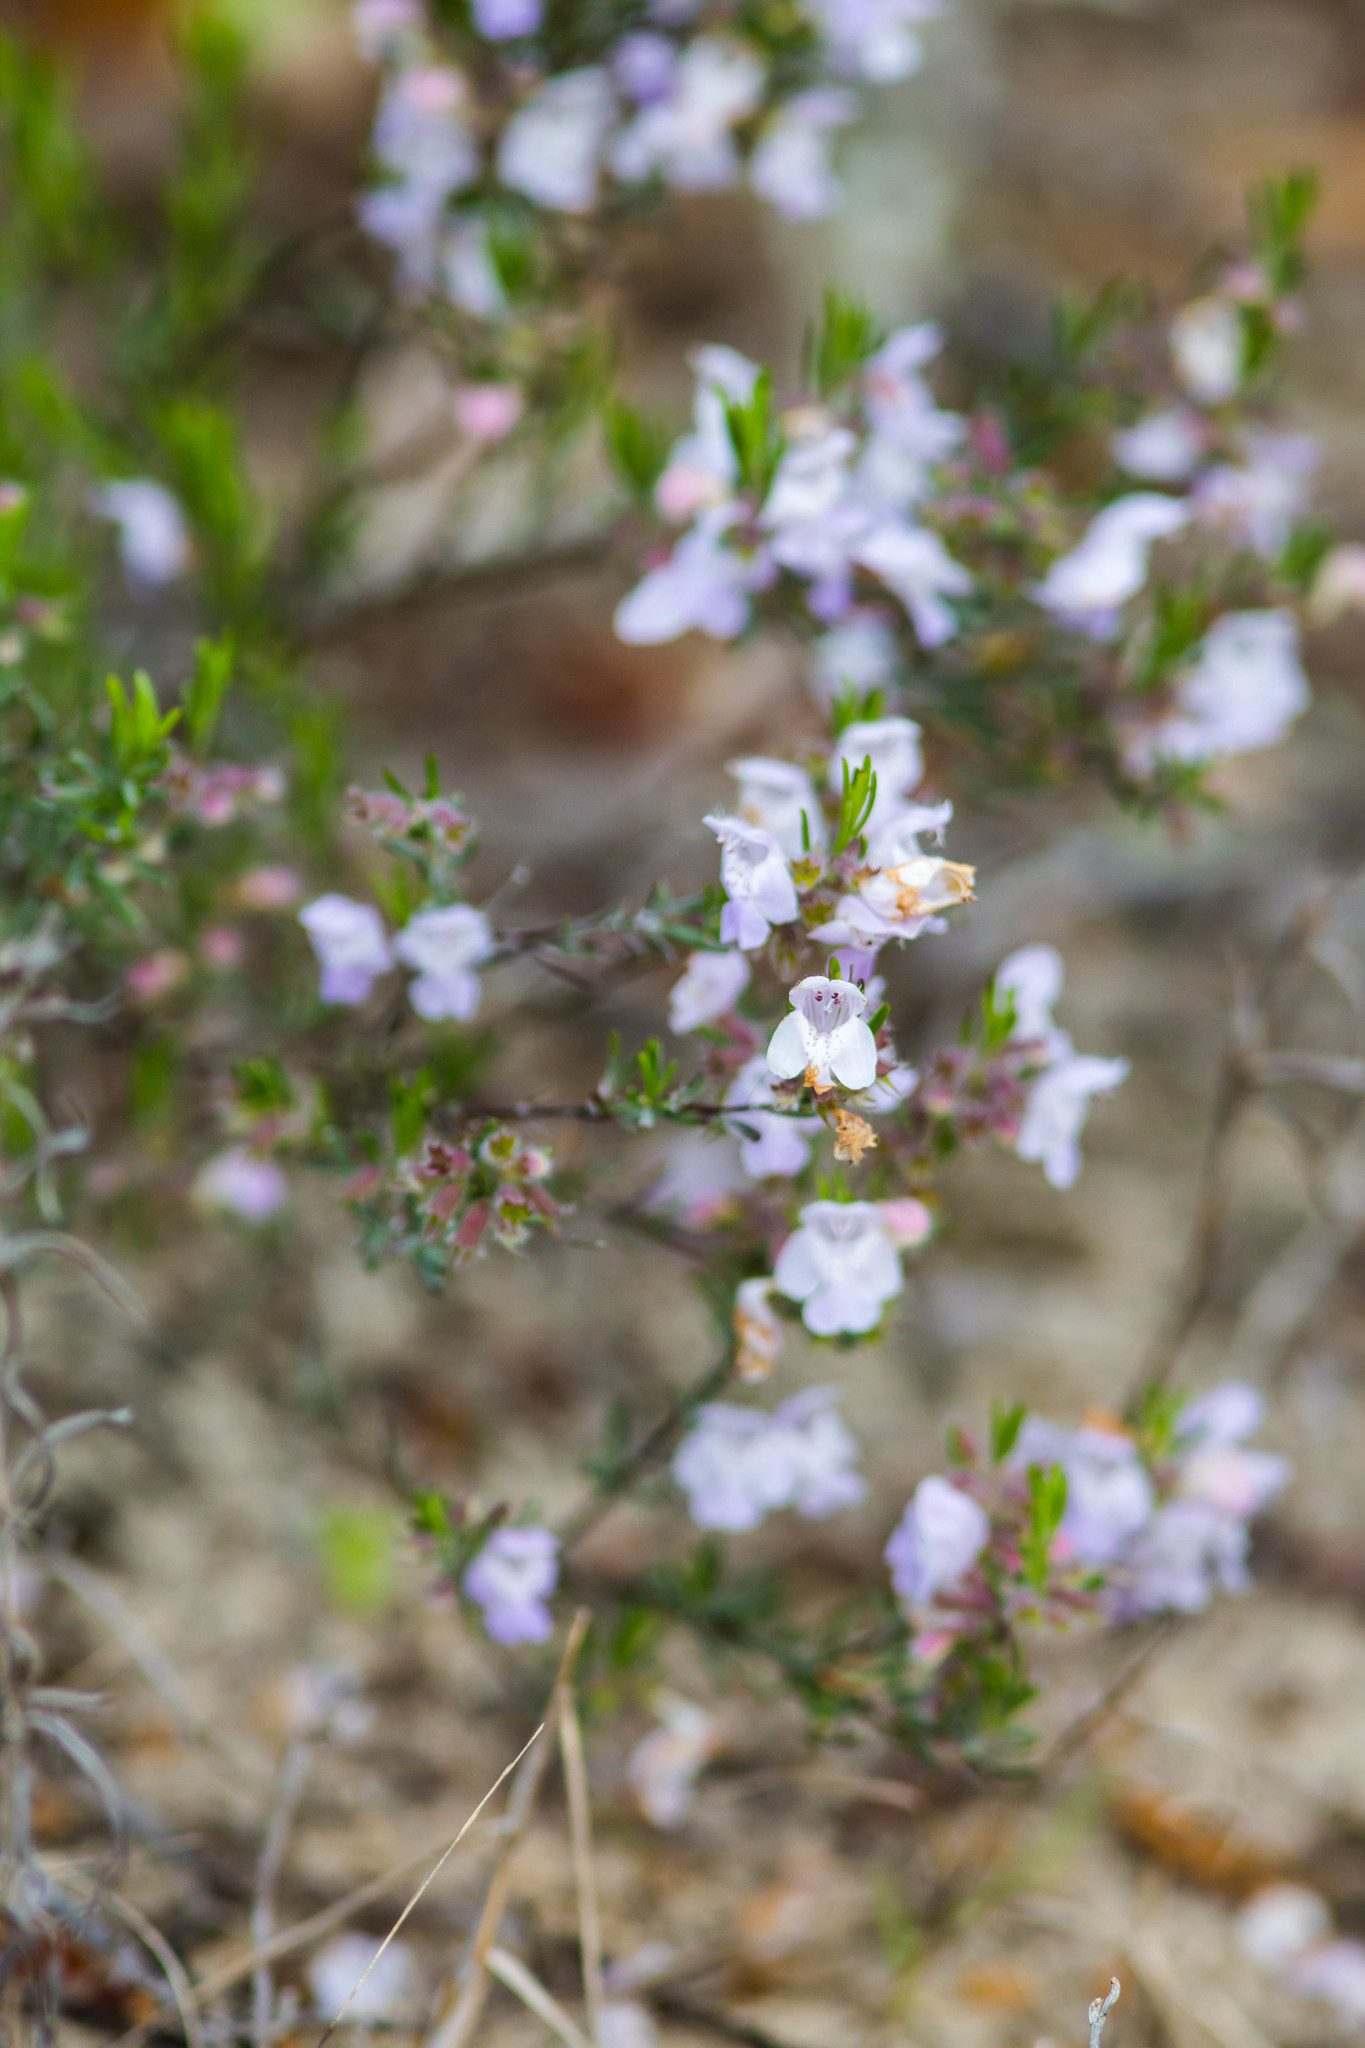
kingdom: Plantae
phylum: Tracheophyta
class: Magnoliopsida
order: Lamiales
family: Lamiaceae
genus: Conradina
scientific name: Conradina canescens
